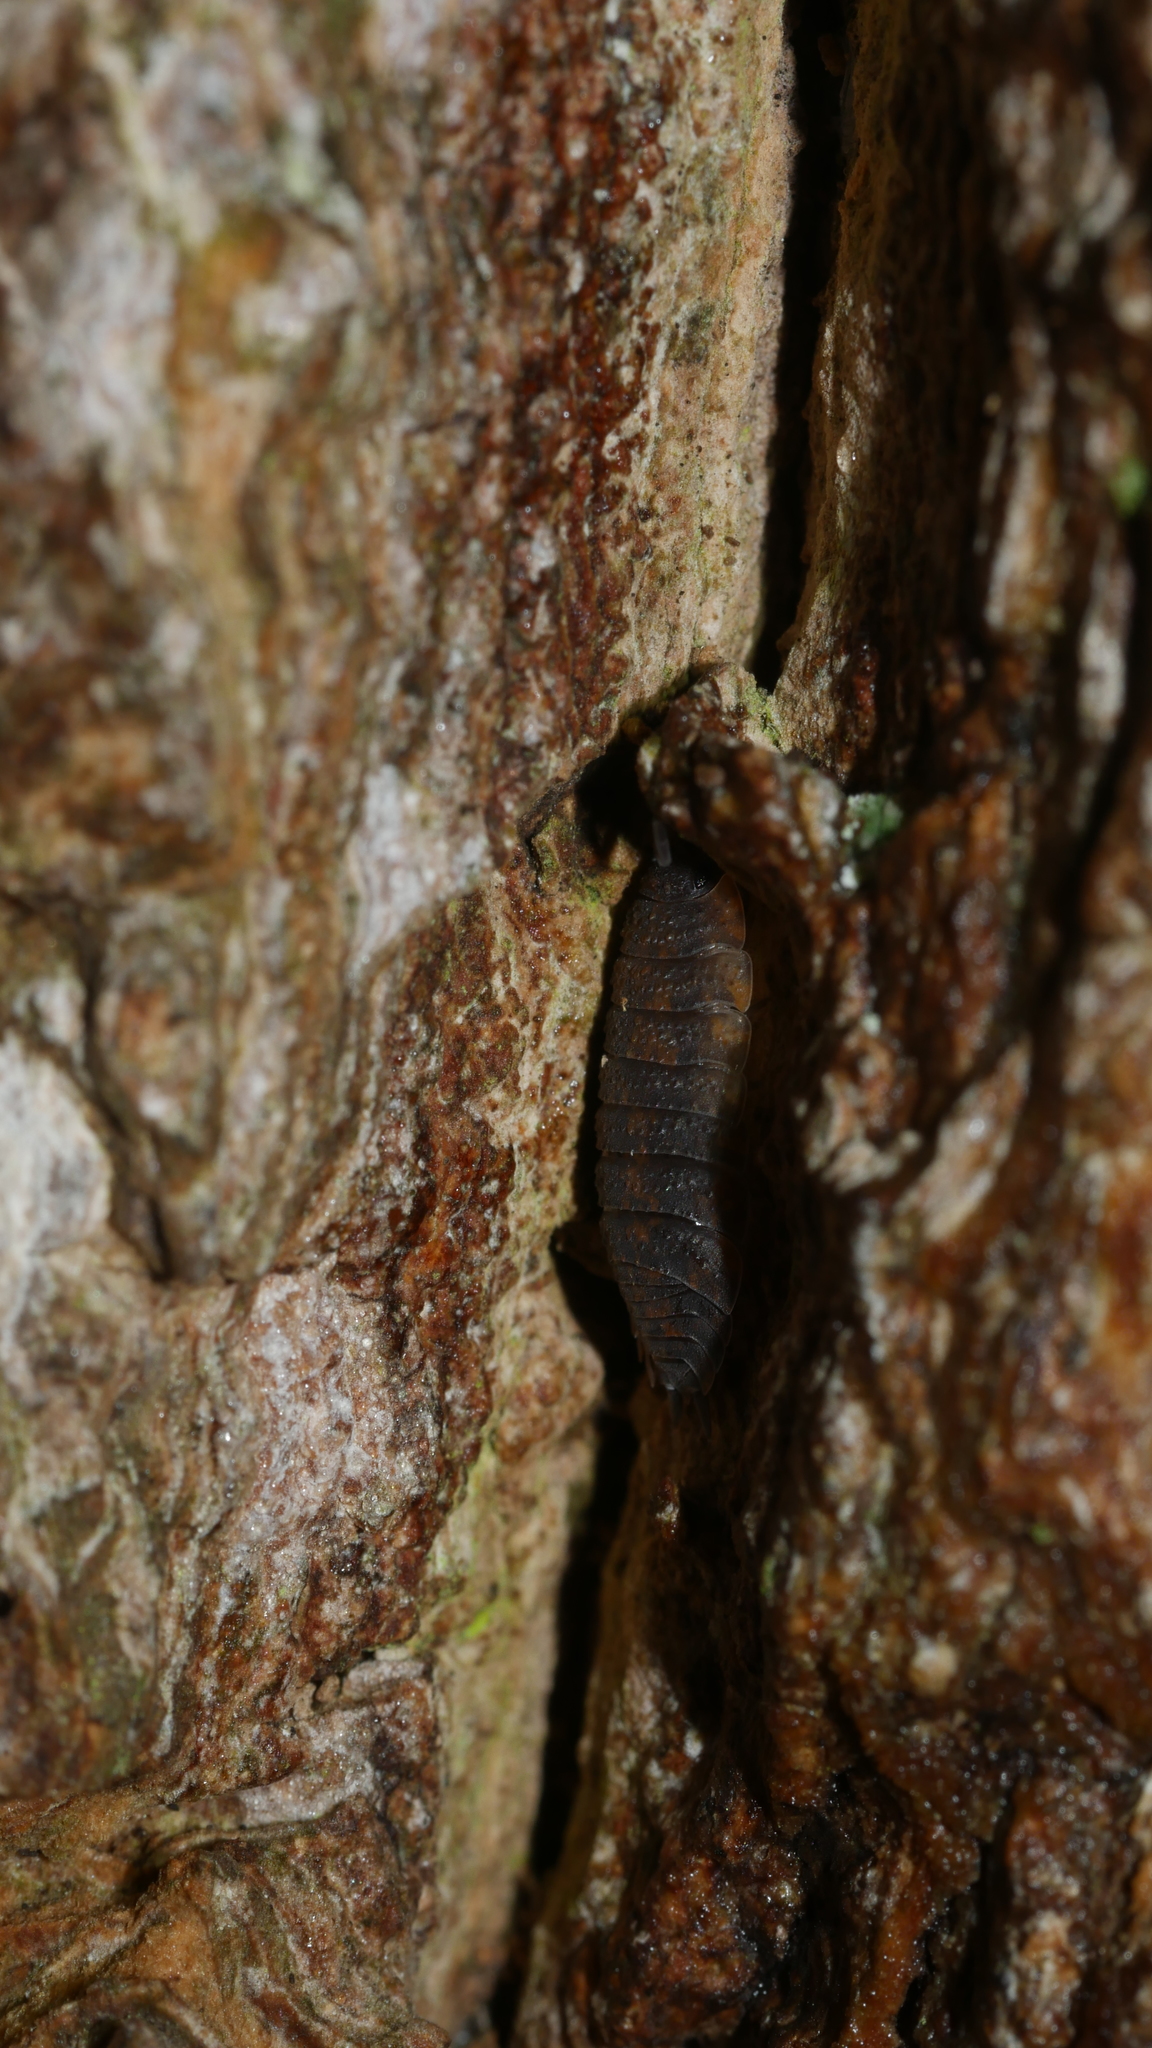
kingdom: Animalia
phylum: Arthropoda
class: Malacostraca
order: Isopoda
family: Porcellionidae
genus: Porcellio
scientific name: Porcellio scaber
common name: Common rough woodlouse
